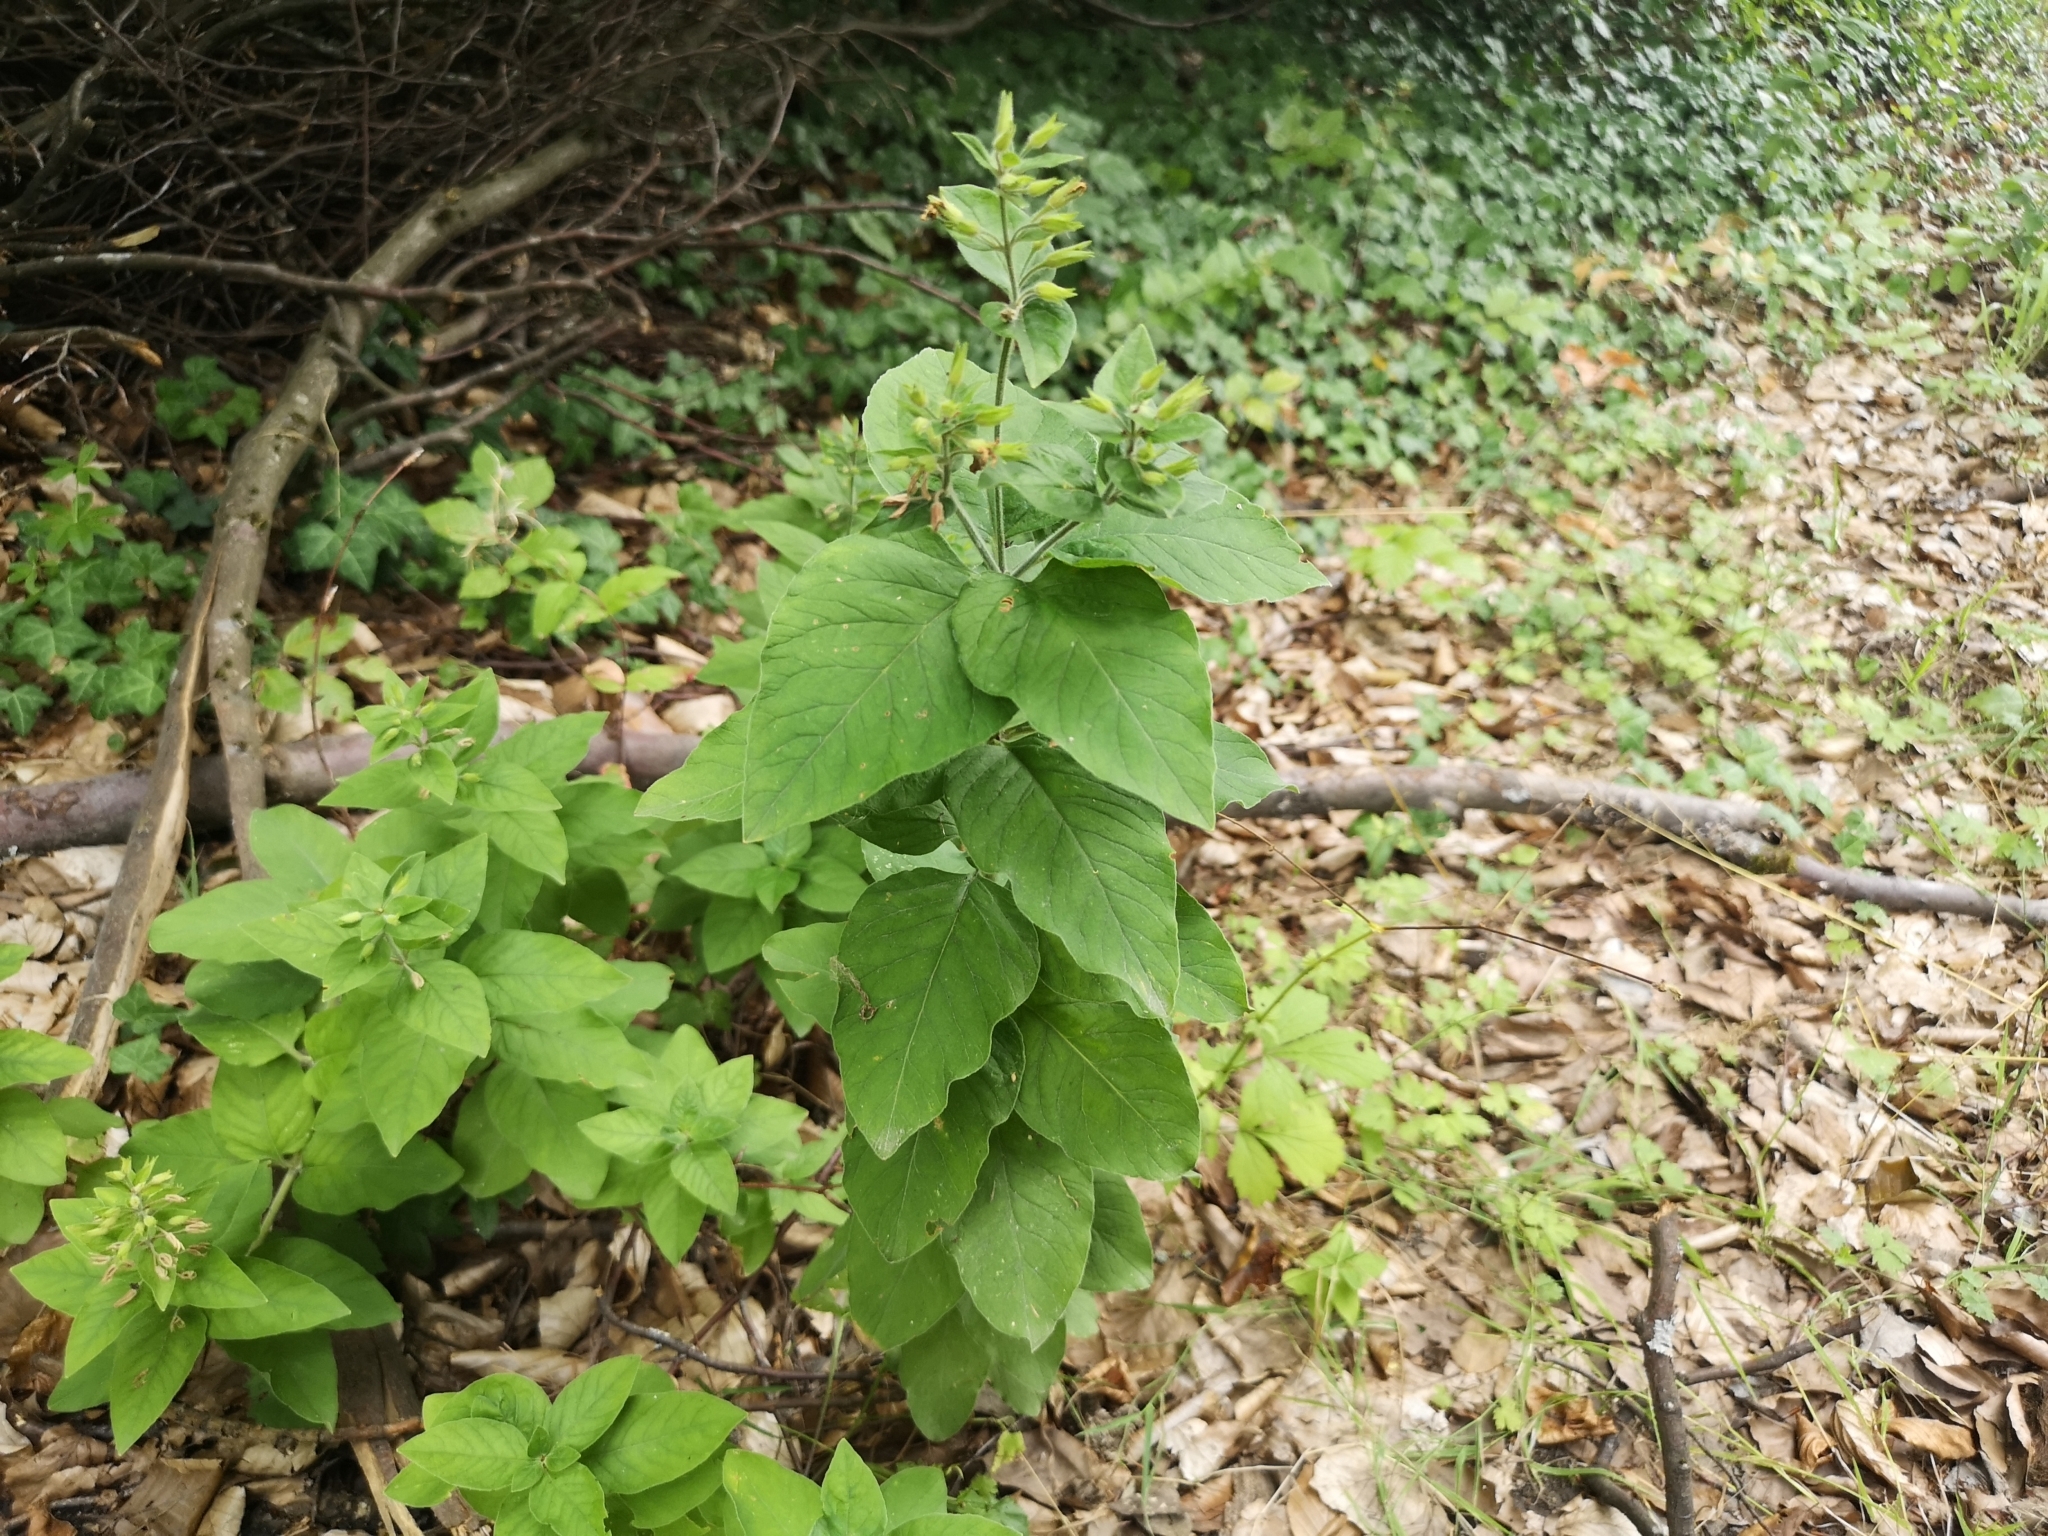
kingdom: Plantae
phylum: Tracheophyta
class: Magnoliopsida
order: Ericales
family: Primulaceae
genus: Lysimachia
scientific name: Lysimachia punctata
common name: Dotted loosestrife
